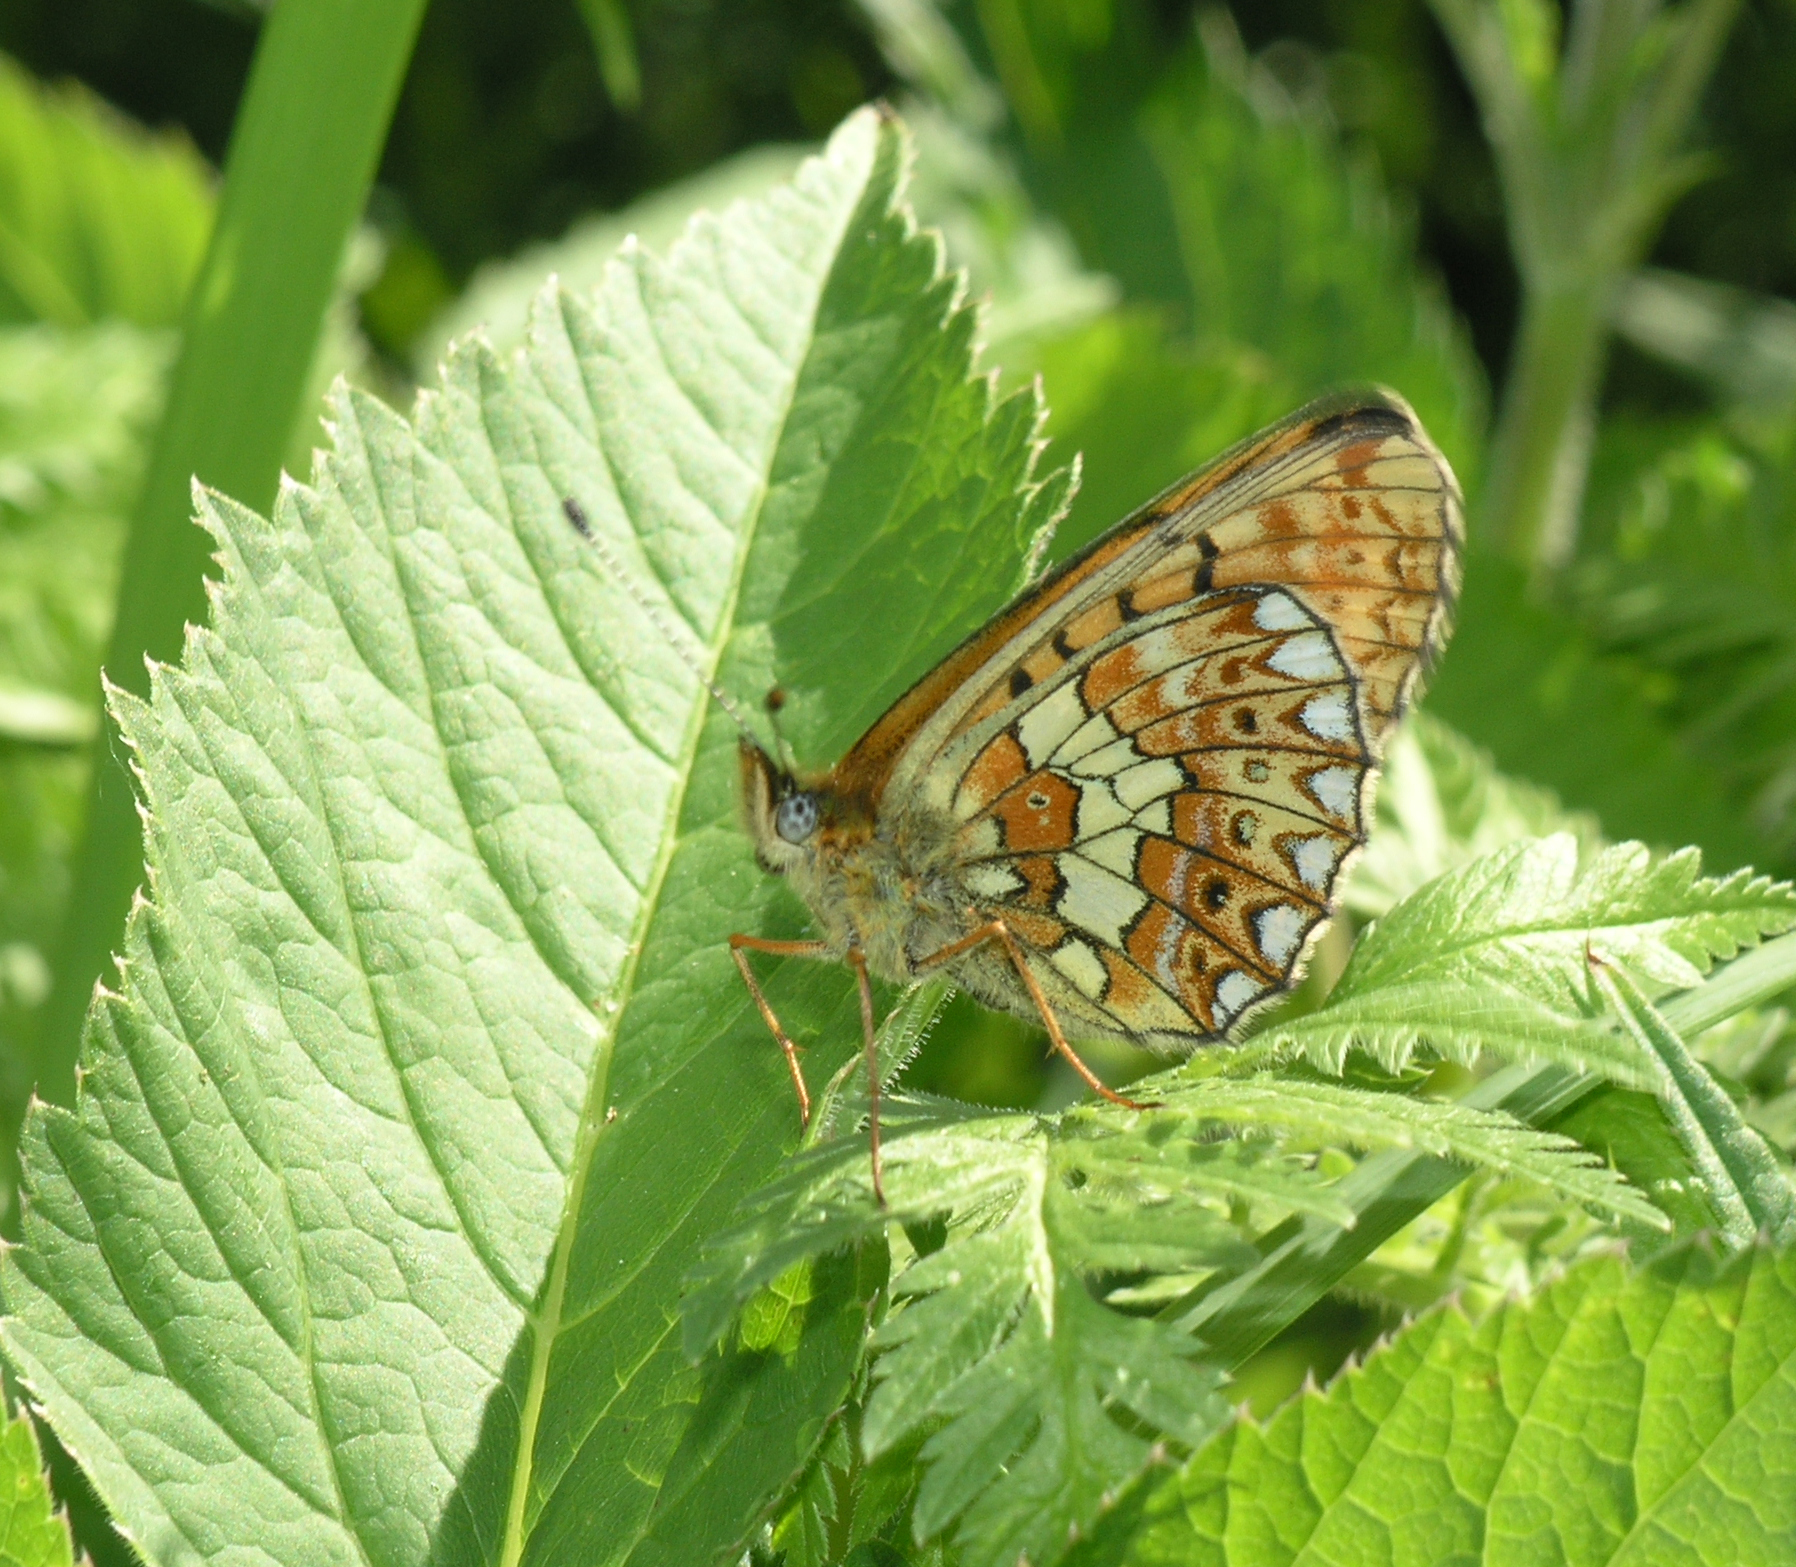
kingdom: Animalia
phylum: Arthropoda
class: Insecta
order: Lepidoptera
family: Nymphalidae
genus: Clossiana
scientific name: Clossiana oscarus
